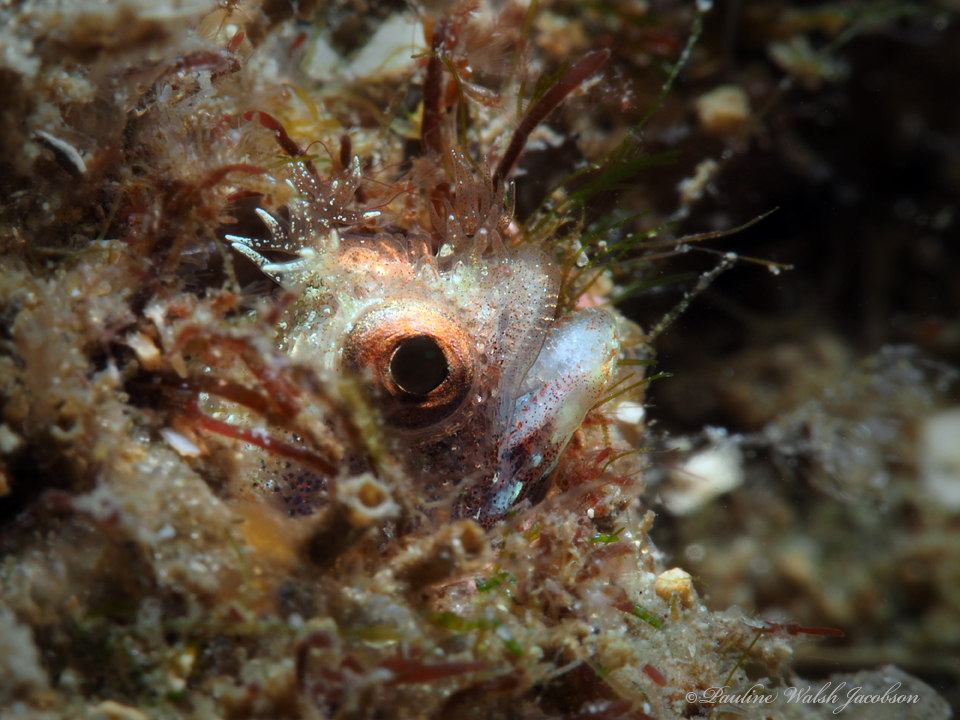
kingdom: Animalia
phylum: Chordata
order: Perciformes
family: Chaenopsidae
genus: Acanthemblemaria
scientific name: Acanthemblemaria aspera
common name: Roughhead blenny
